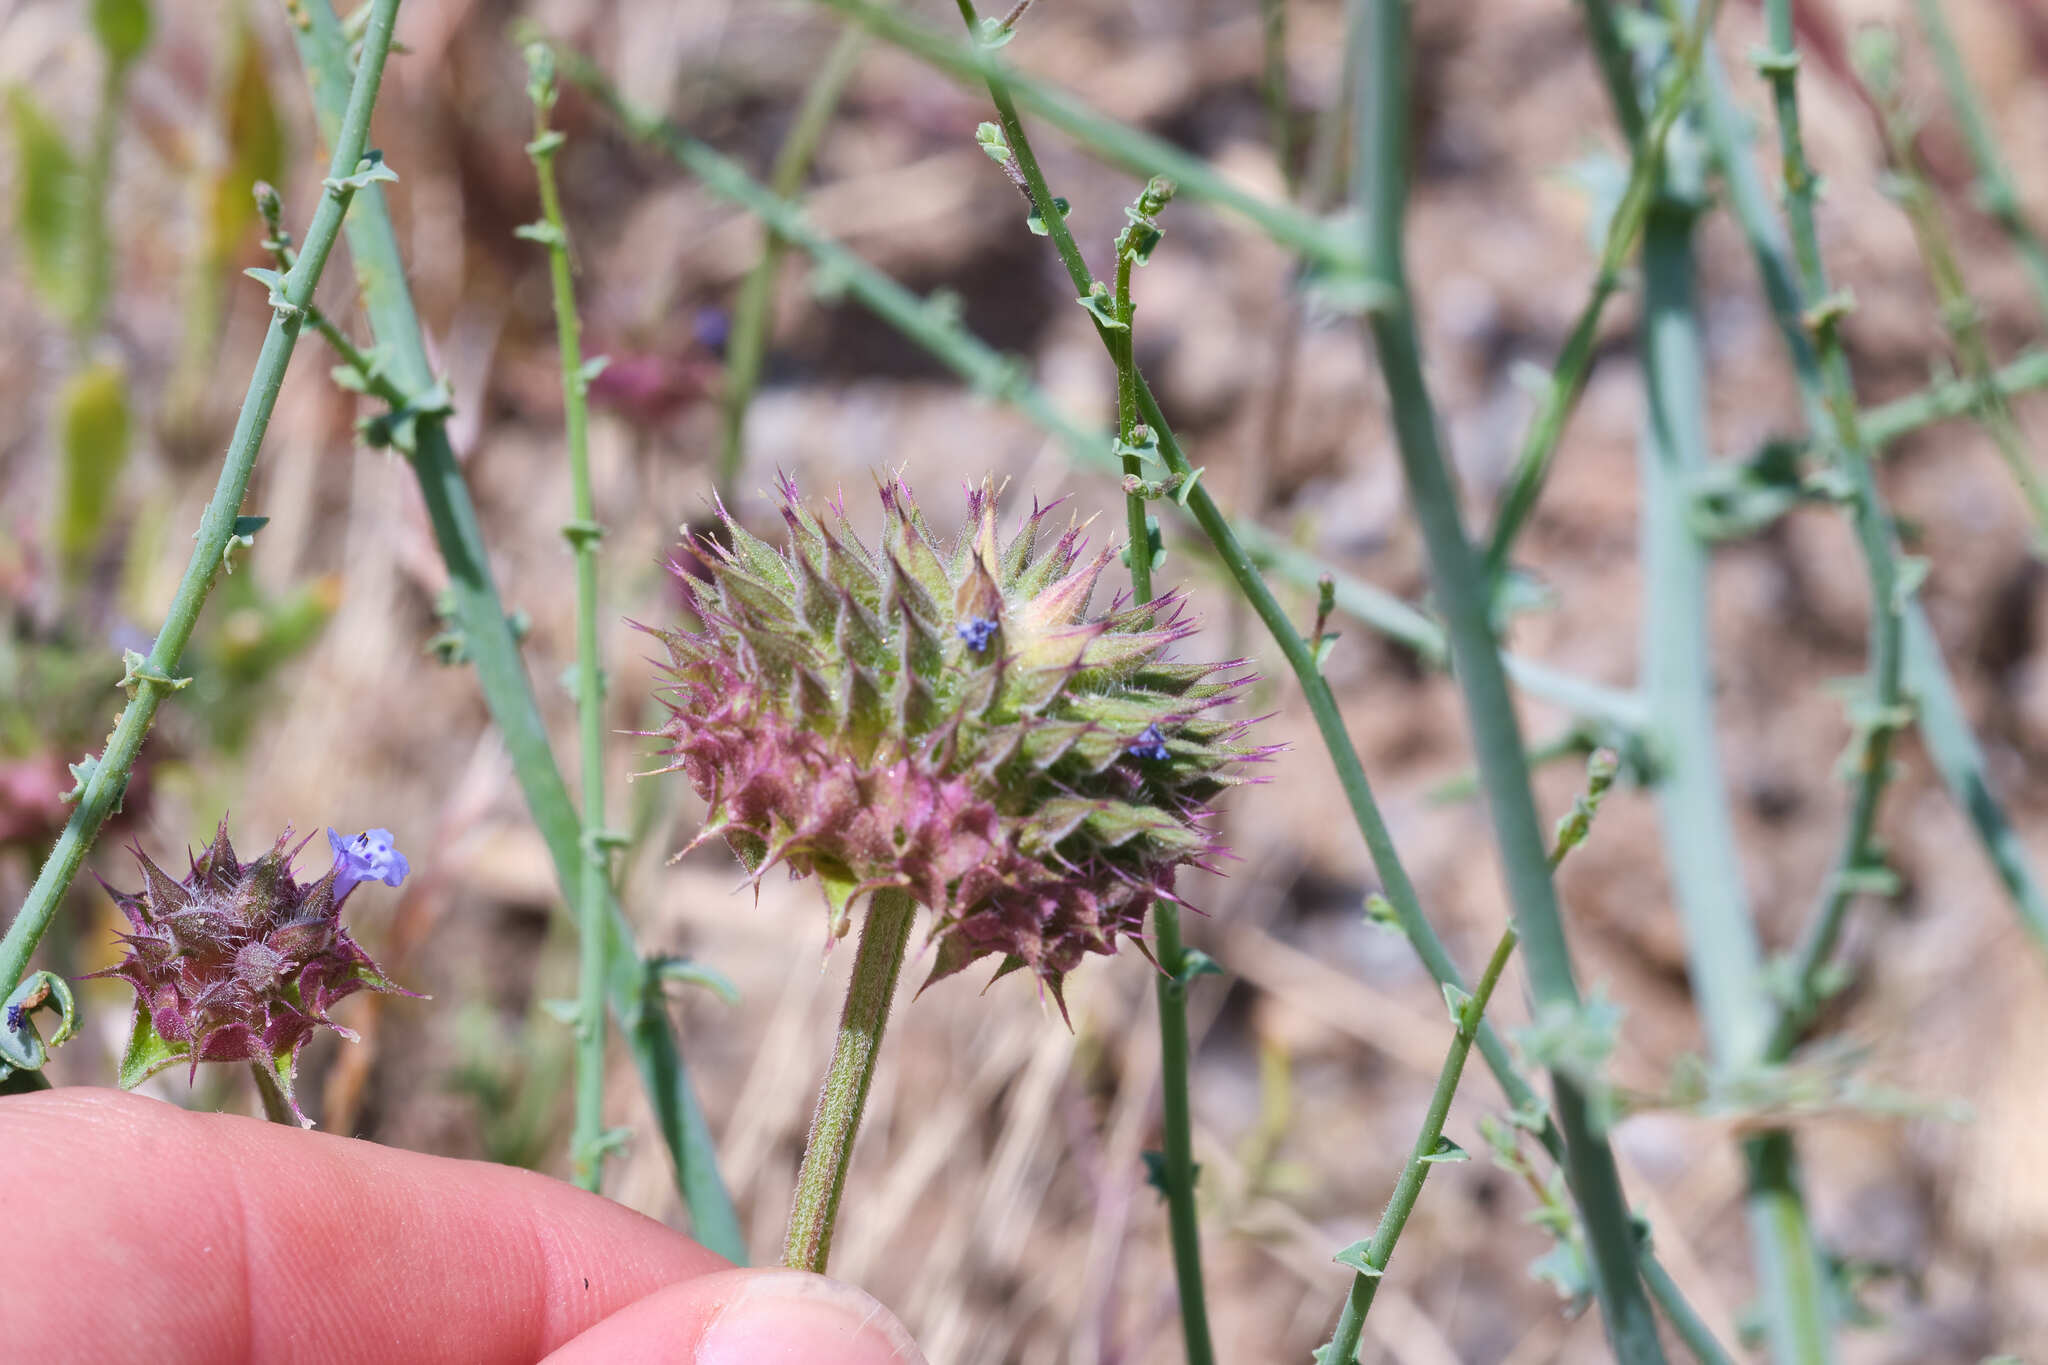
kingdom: Plantae
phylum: Tracheophyta
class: Magnoliopsida
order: Lamiales
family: Lamiaceae
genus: Salvia
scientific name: Salvia columbariae
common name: Chia
